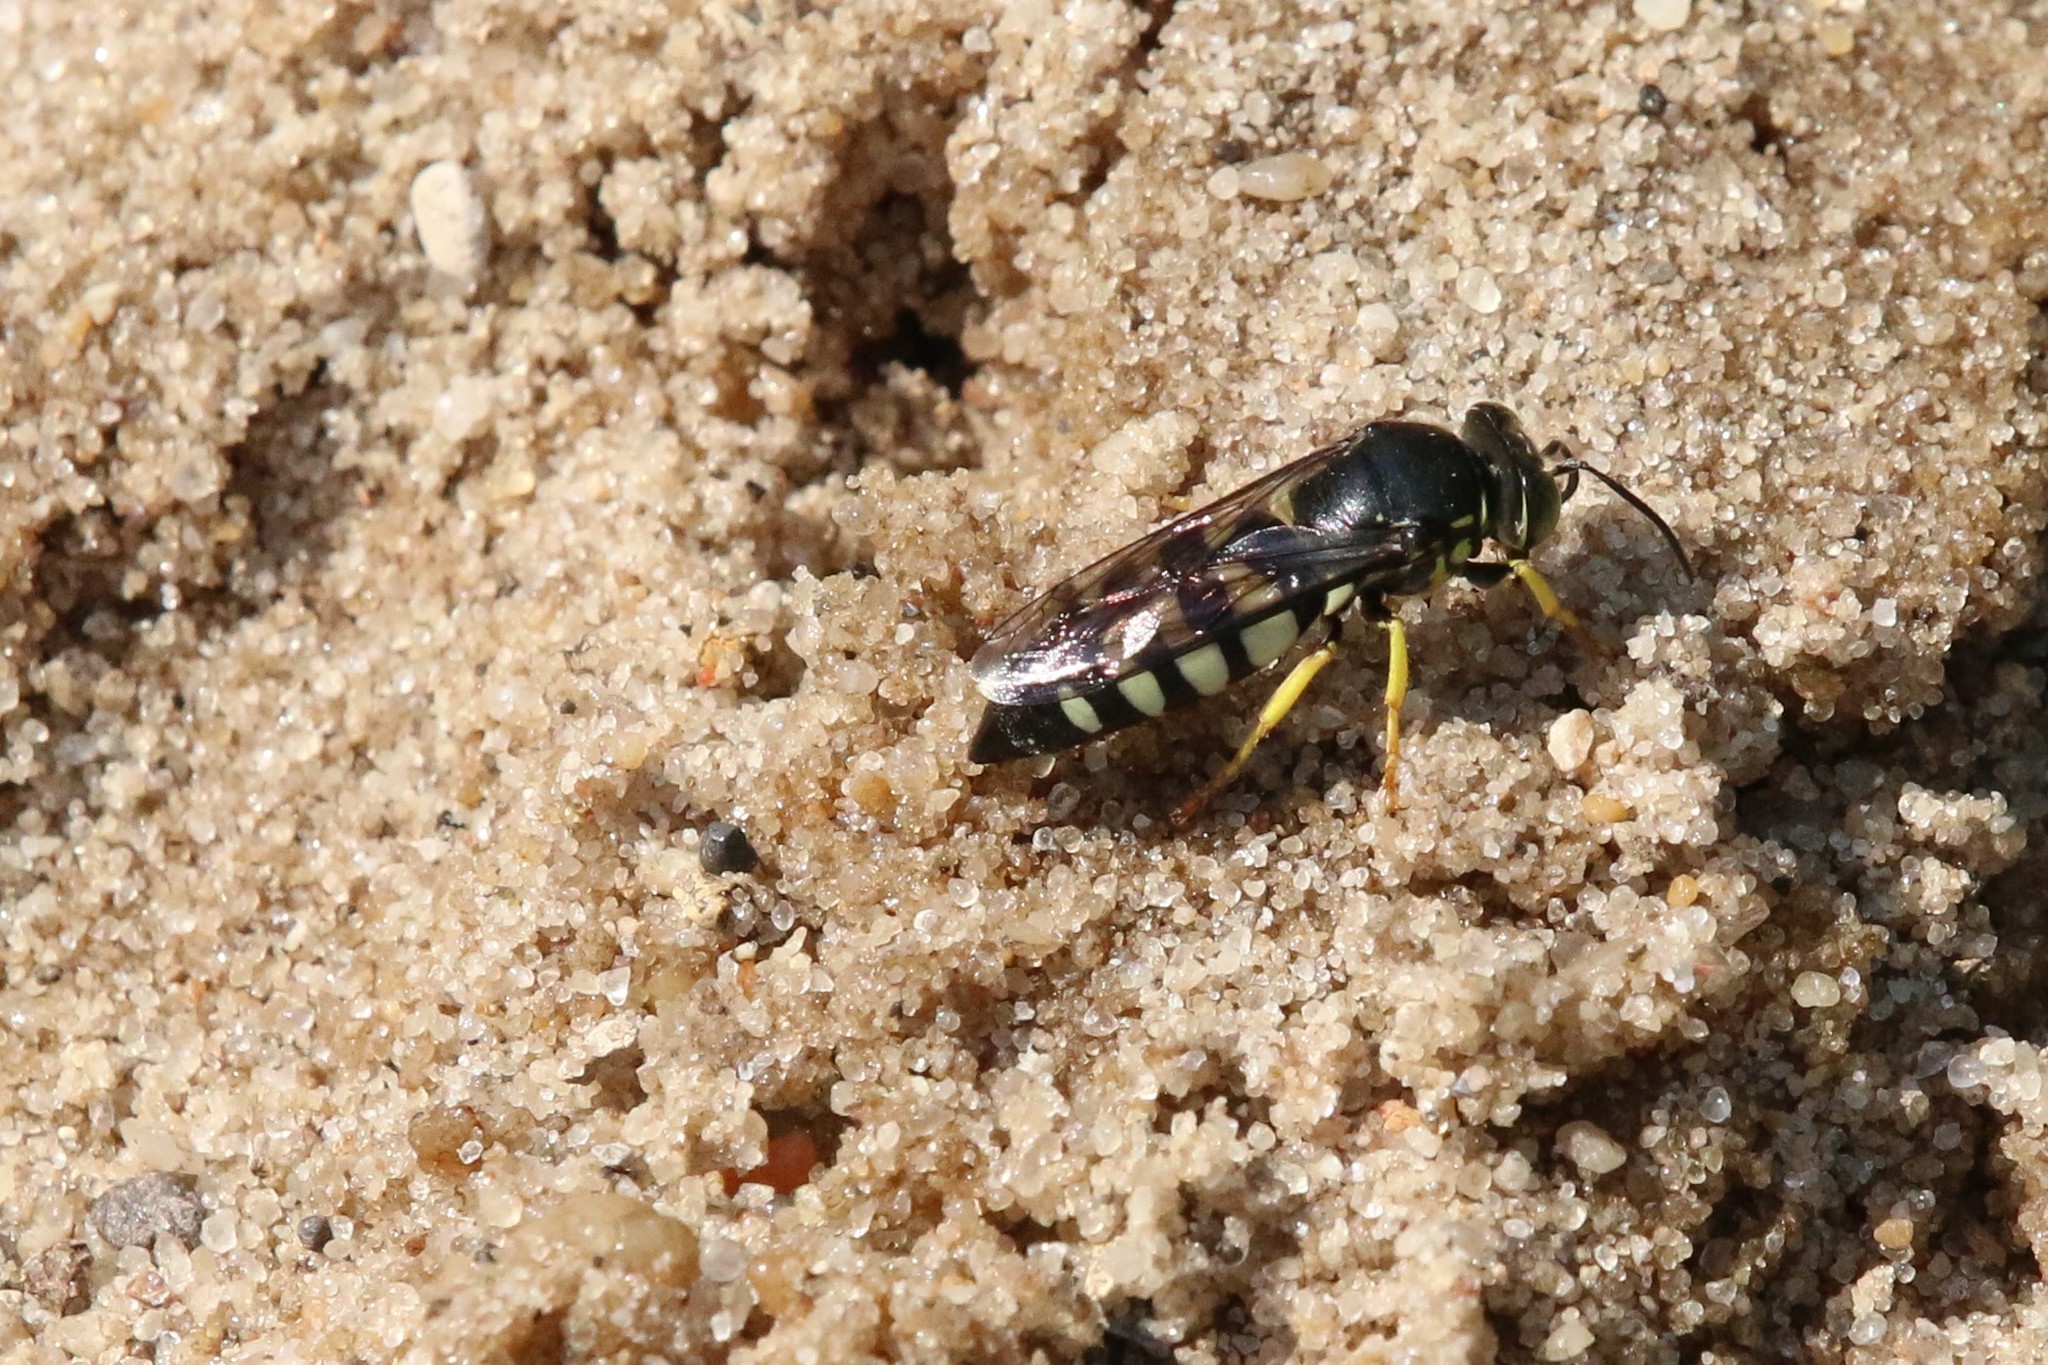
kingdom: Animalia
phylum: Arthropoda
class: Insecta
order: Hymenoptera
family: Crabronidae
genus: Bicyrtes
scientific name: Bicyrtes quadrifasciatus
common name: Four-banded stink bug hunter wasp
